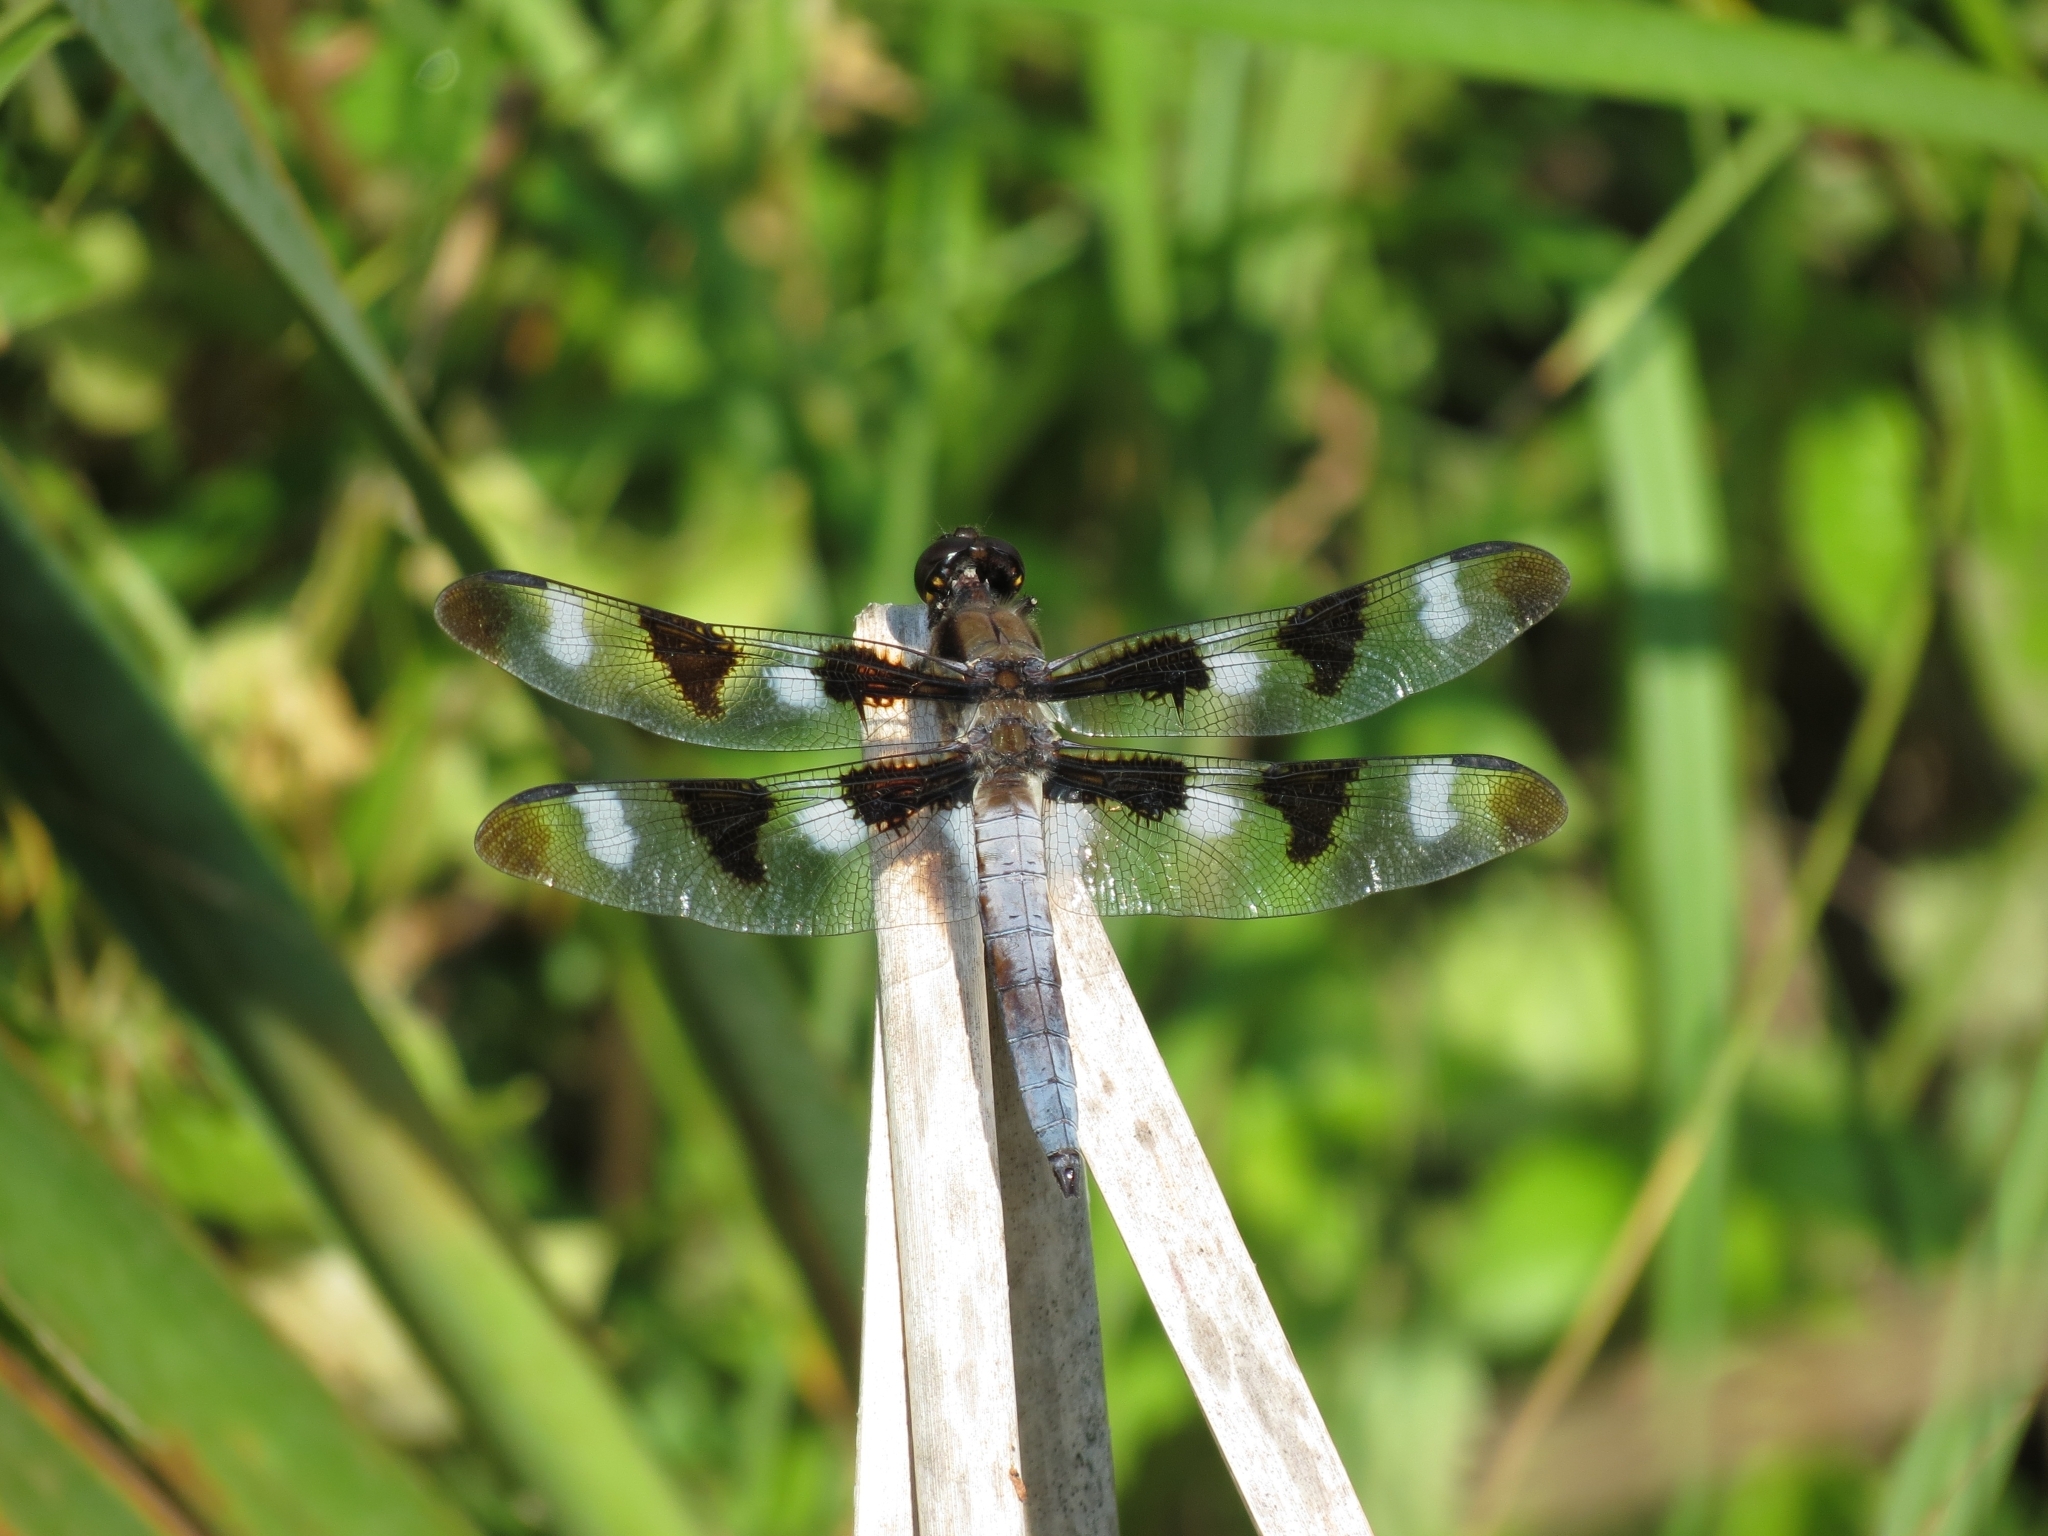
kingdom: Animalia
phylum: Arthropoda
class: Insecta
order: Odonata
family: Libellulidae
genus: Libellula
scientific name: Libellula pulchella
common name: Twelve-spotted skimmer
